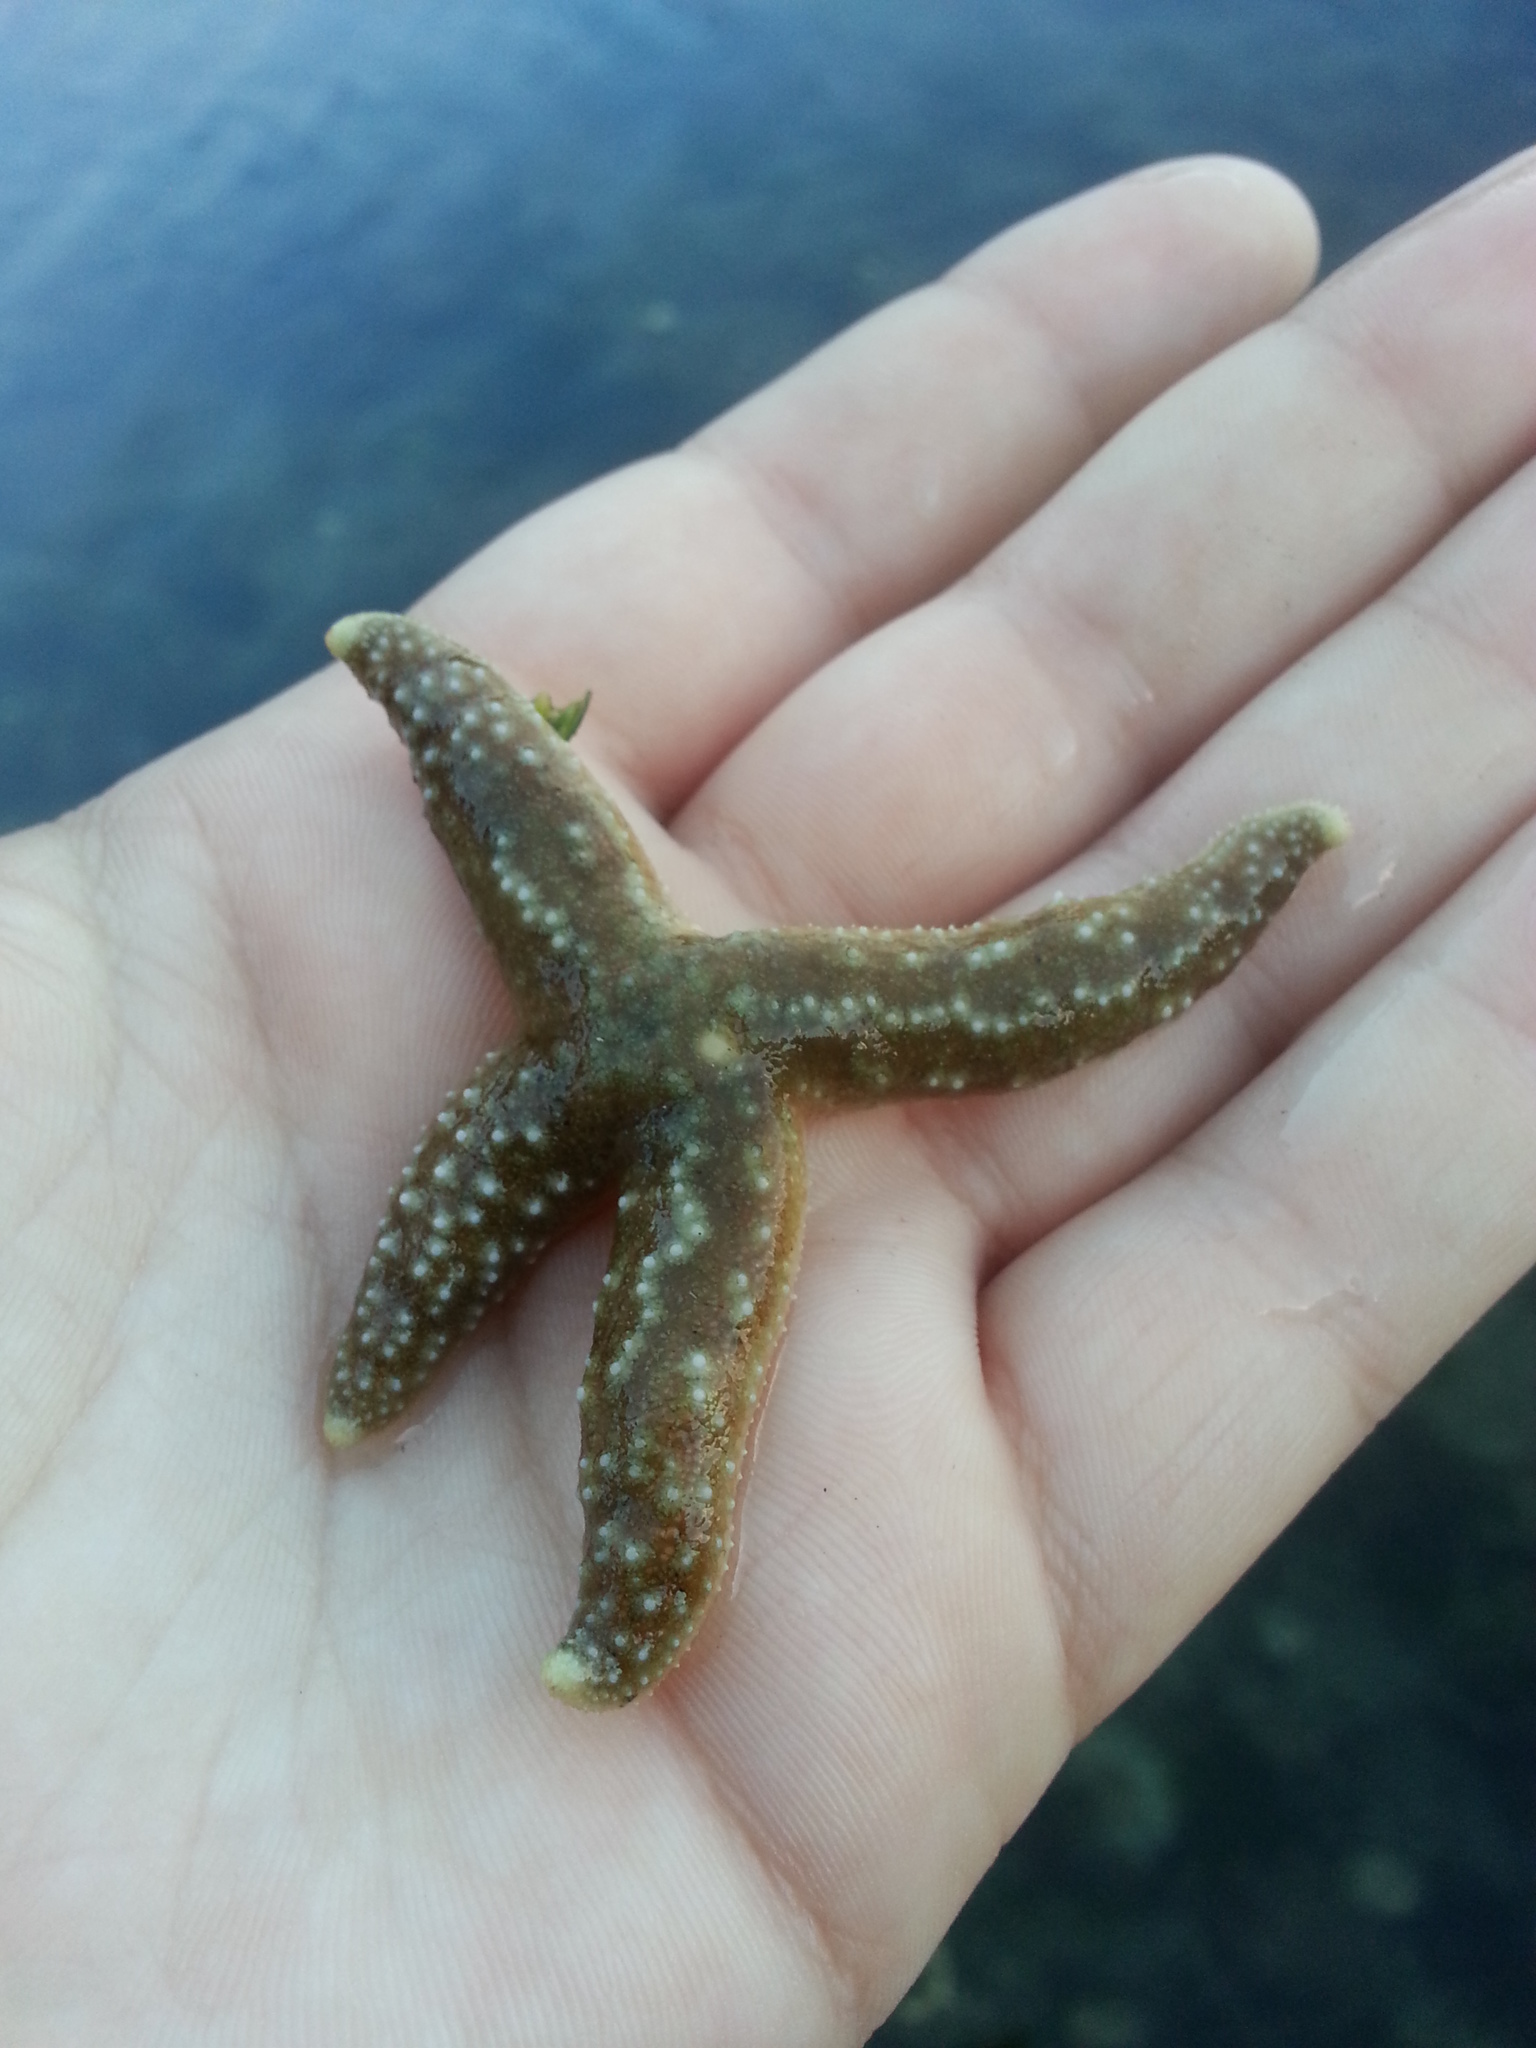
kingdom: Animalia
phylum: Echinodermata
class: Asteroidea
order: Forcipulatida
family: Asteriidae
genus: Evasterias
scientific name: Evasterias troschelii
